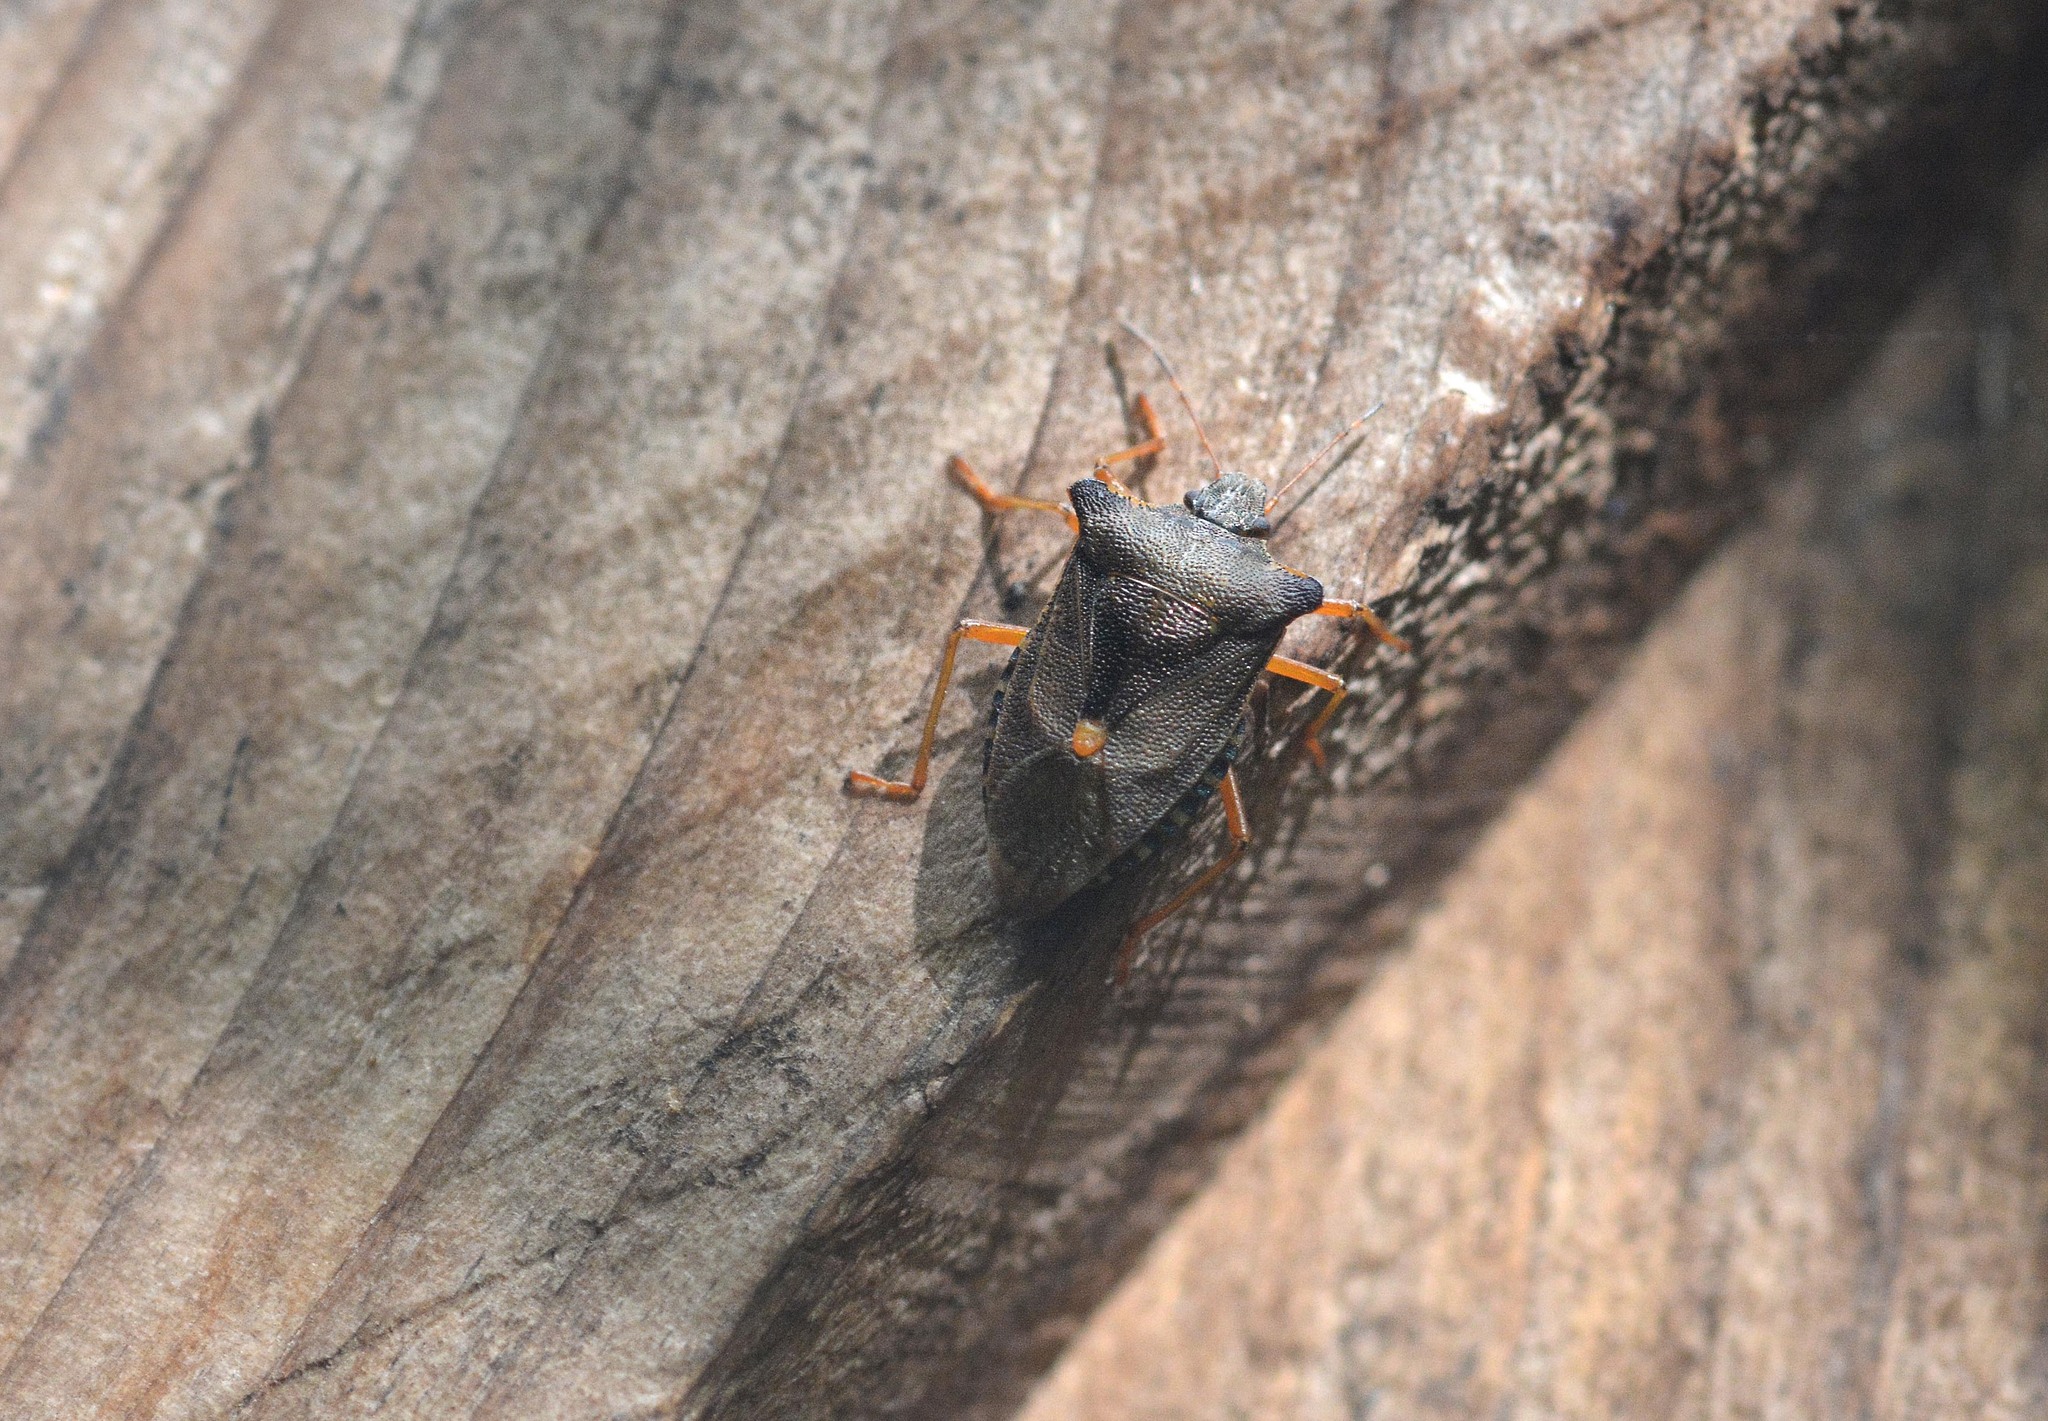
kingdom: Animalia
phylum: Arthropoda
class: Insecta
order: Hemiptera
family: Pentatomidae
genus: Pentatoma
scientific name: Pentatoma rufipes
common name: Forest bug
